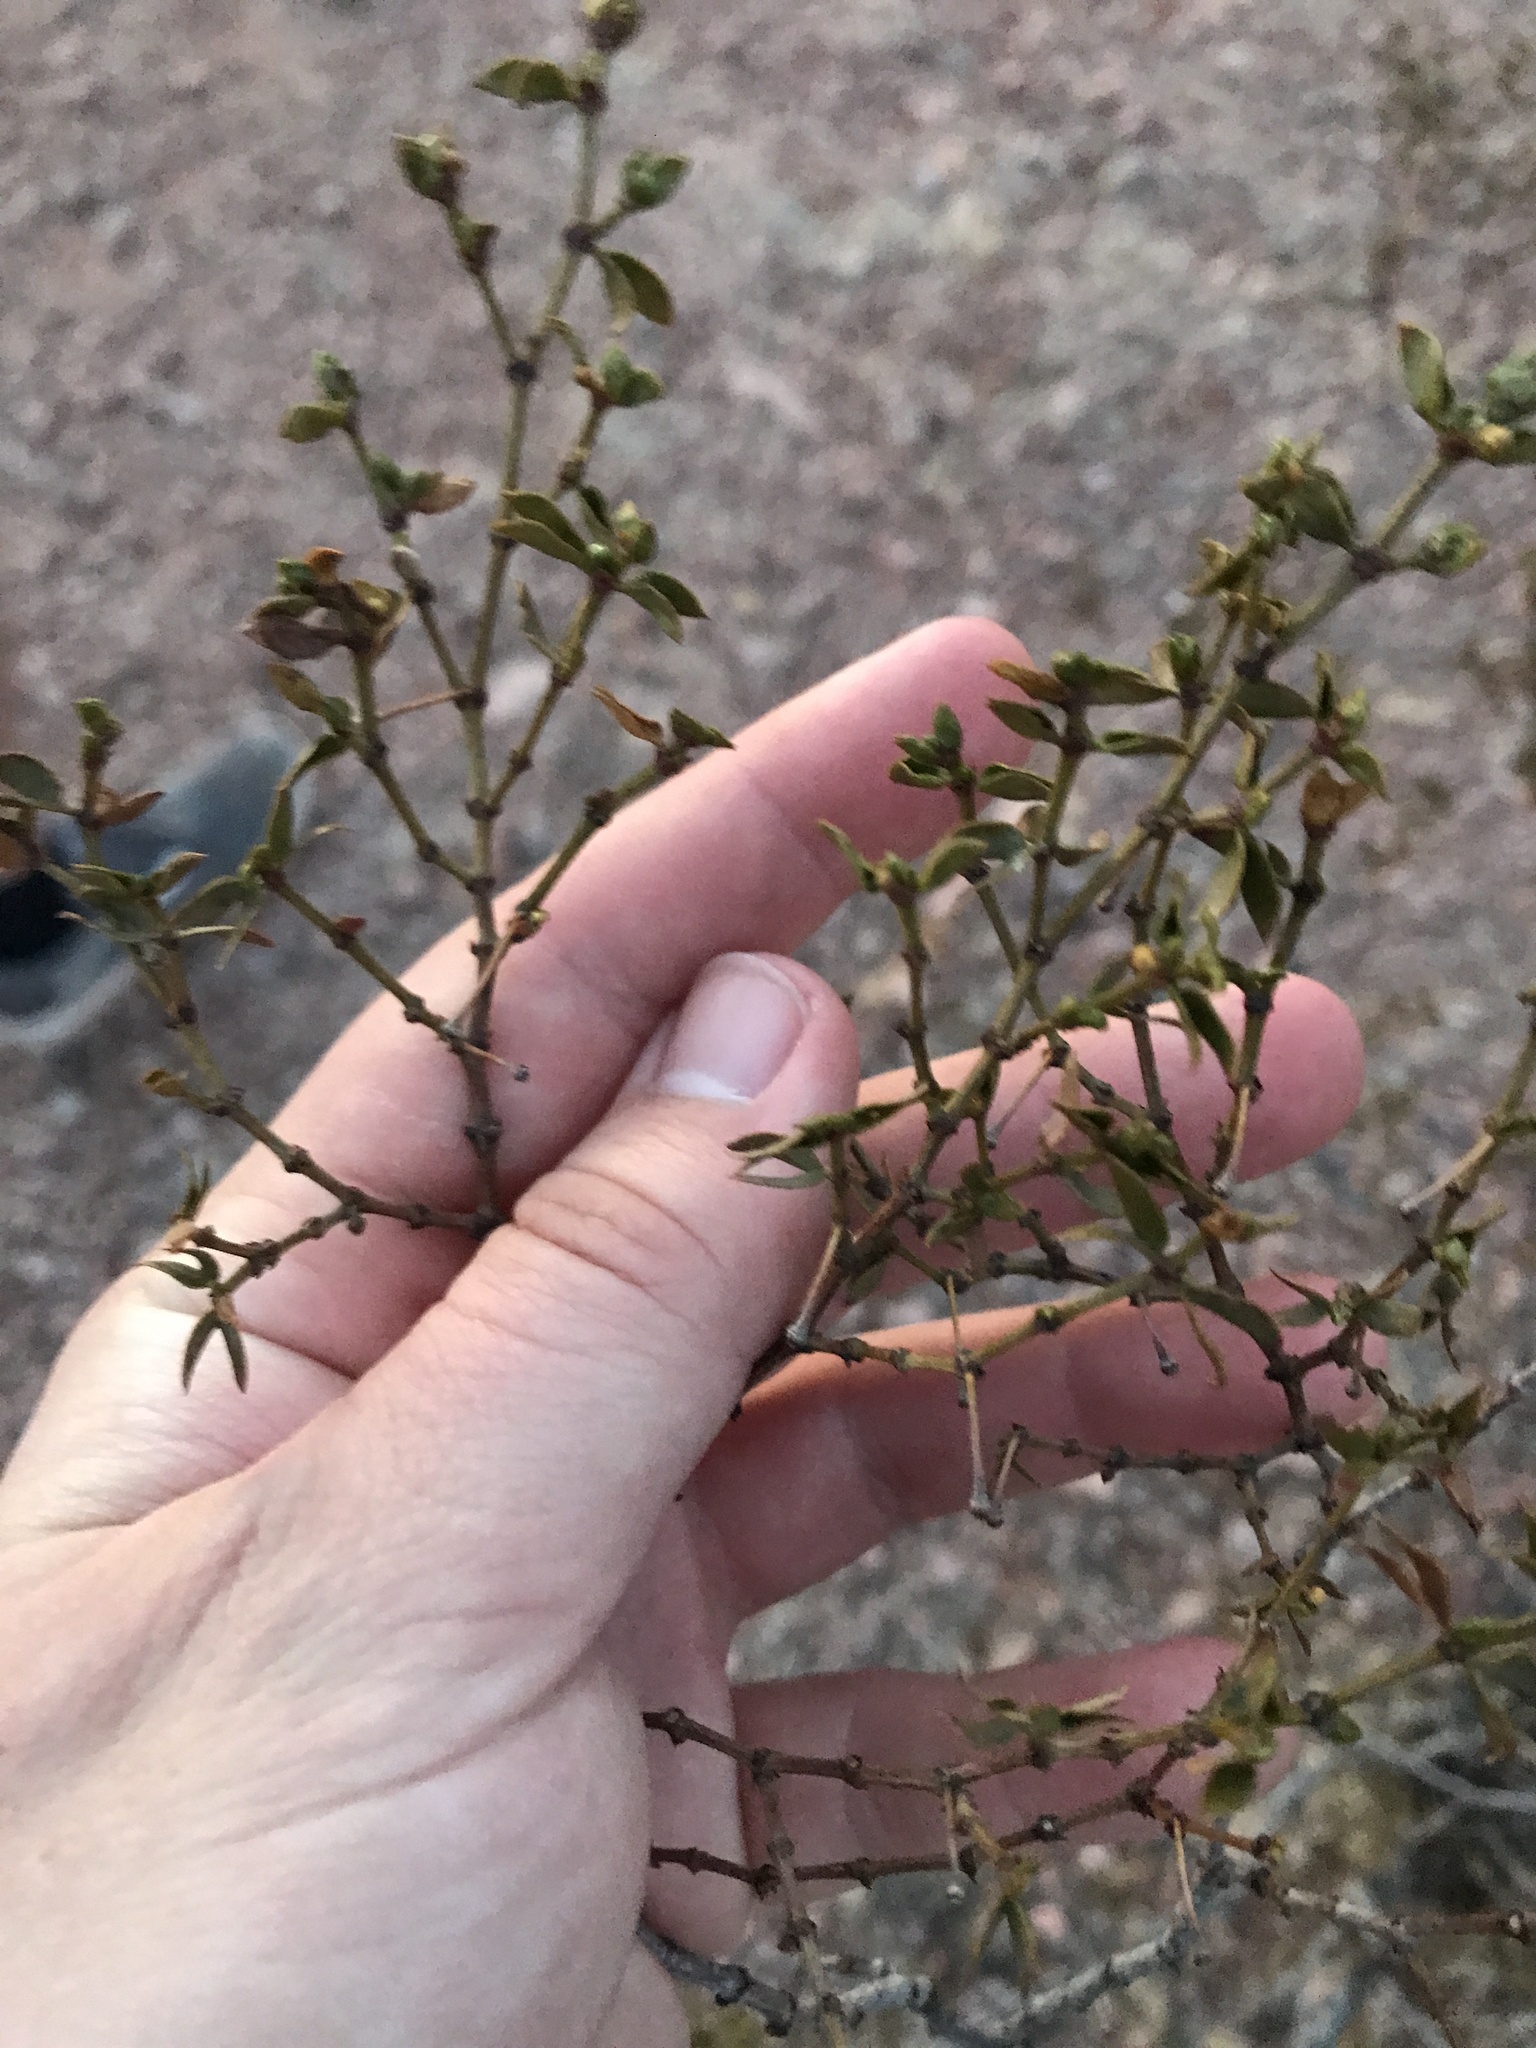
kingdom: Plantae
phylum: Tracheophyta
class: Magnoliopsida
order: Zygophyllales
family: Zygophyllaceae
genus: Larrea
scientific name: Larrea tridentata
